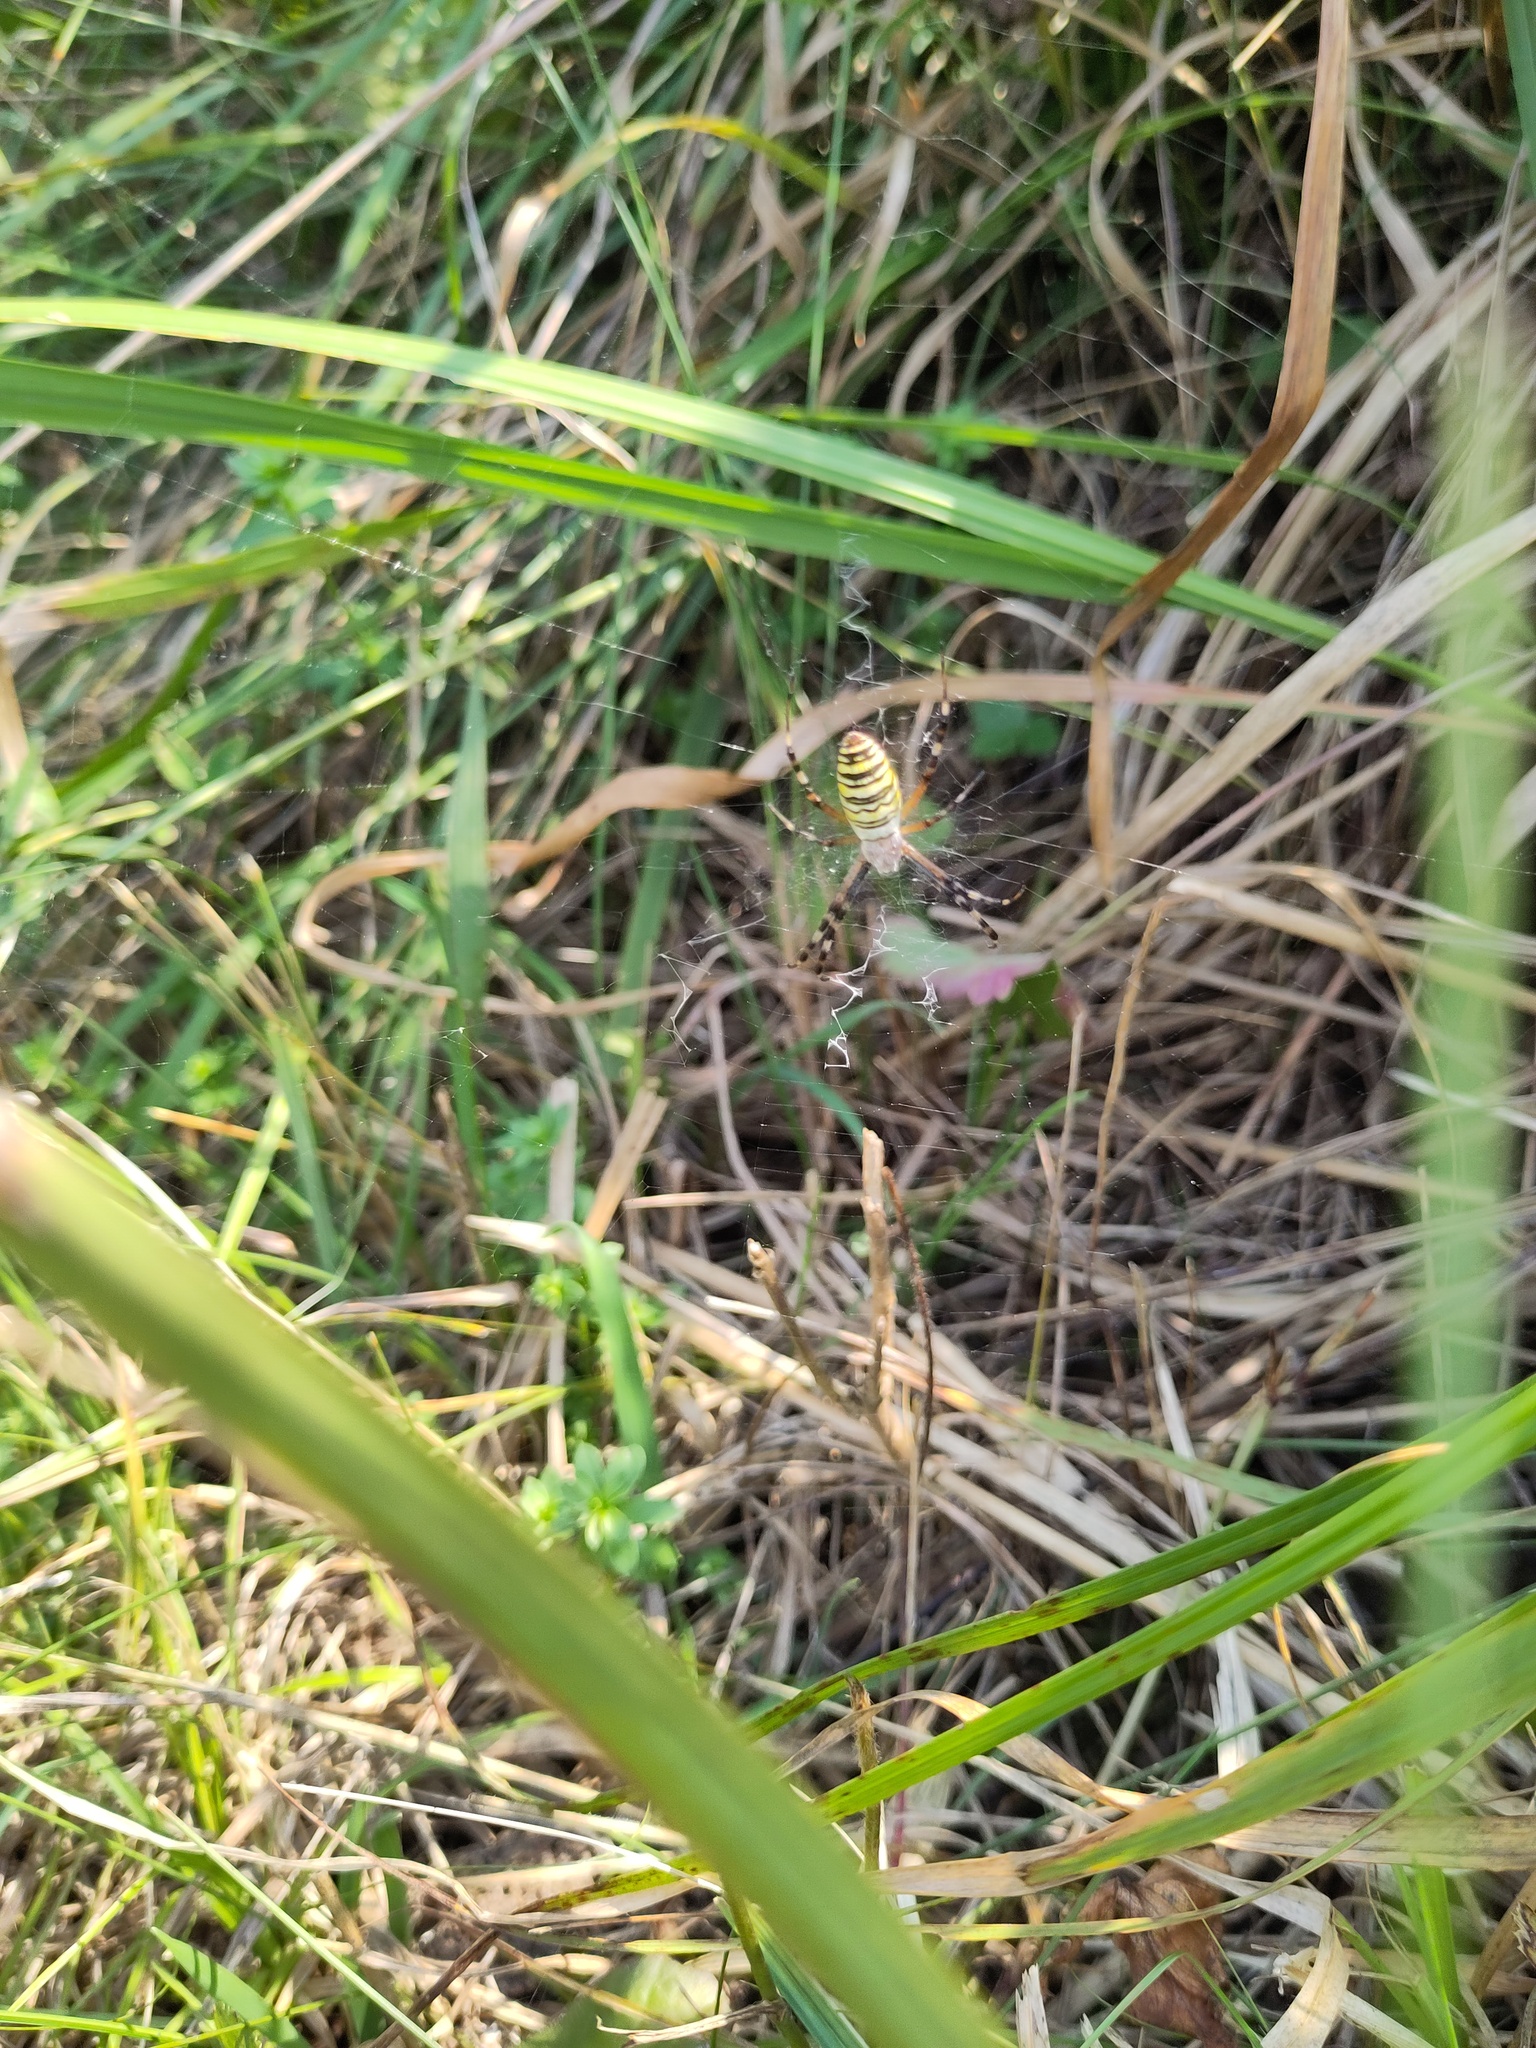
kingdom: Animalia
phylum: Arthropoda
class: Arachnida
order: Araneae
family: Araneidae
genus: Argiope
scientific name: Argiope bruennichi
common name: Wasp spider
